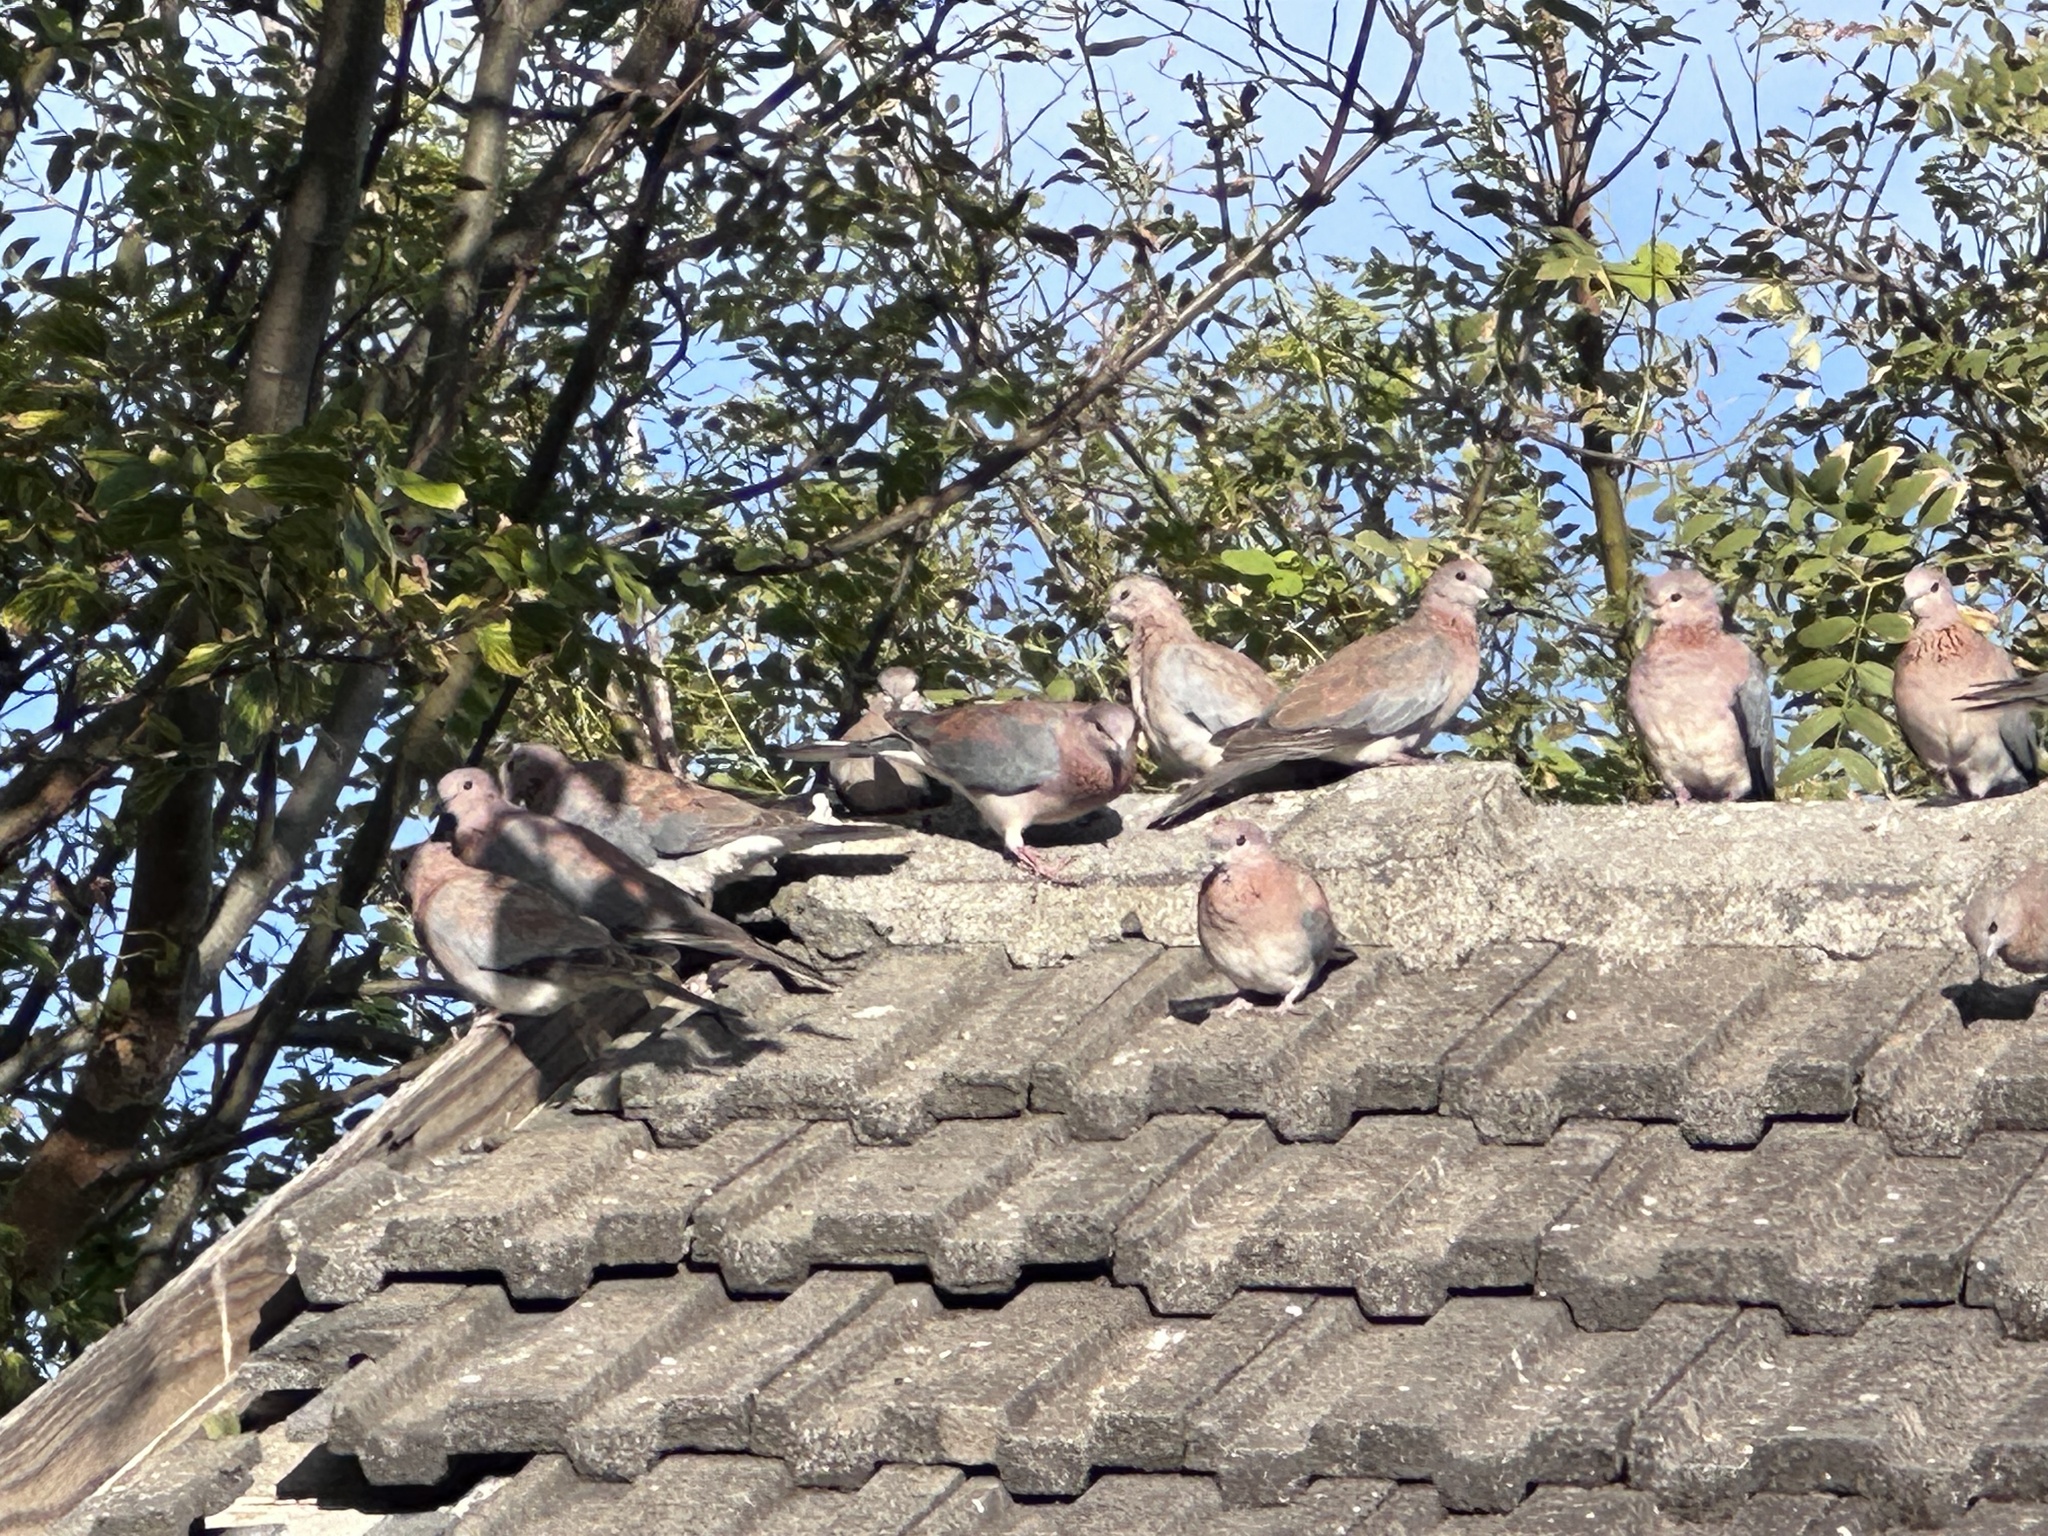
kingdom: Animalia
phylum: Chordata
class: Aves
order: Columbiformes
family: Columbidae
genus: Spilopelia
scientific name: Spilopelia senegalensis
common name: Laughing dove
